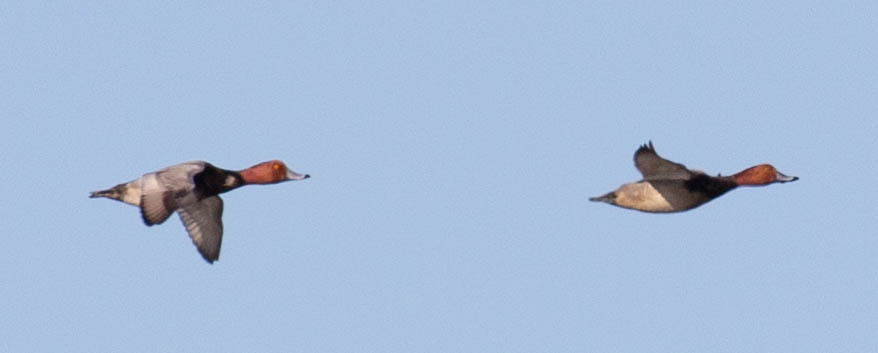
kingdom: Animalia
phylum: Chordata
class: Aves
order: Anseriformes
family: Anatidae
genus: Aythya
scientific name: Aythya americana
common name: Redhead
